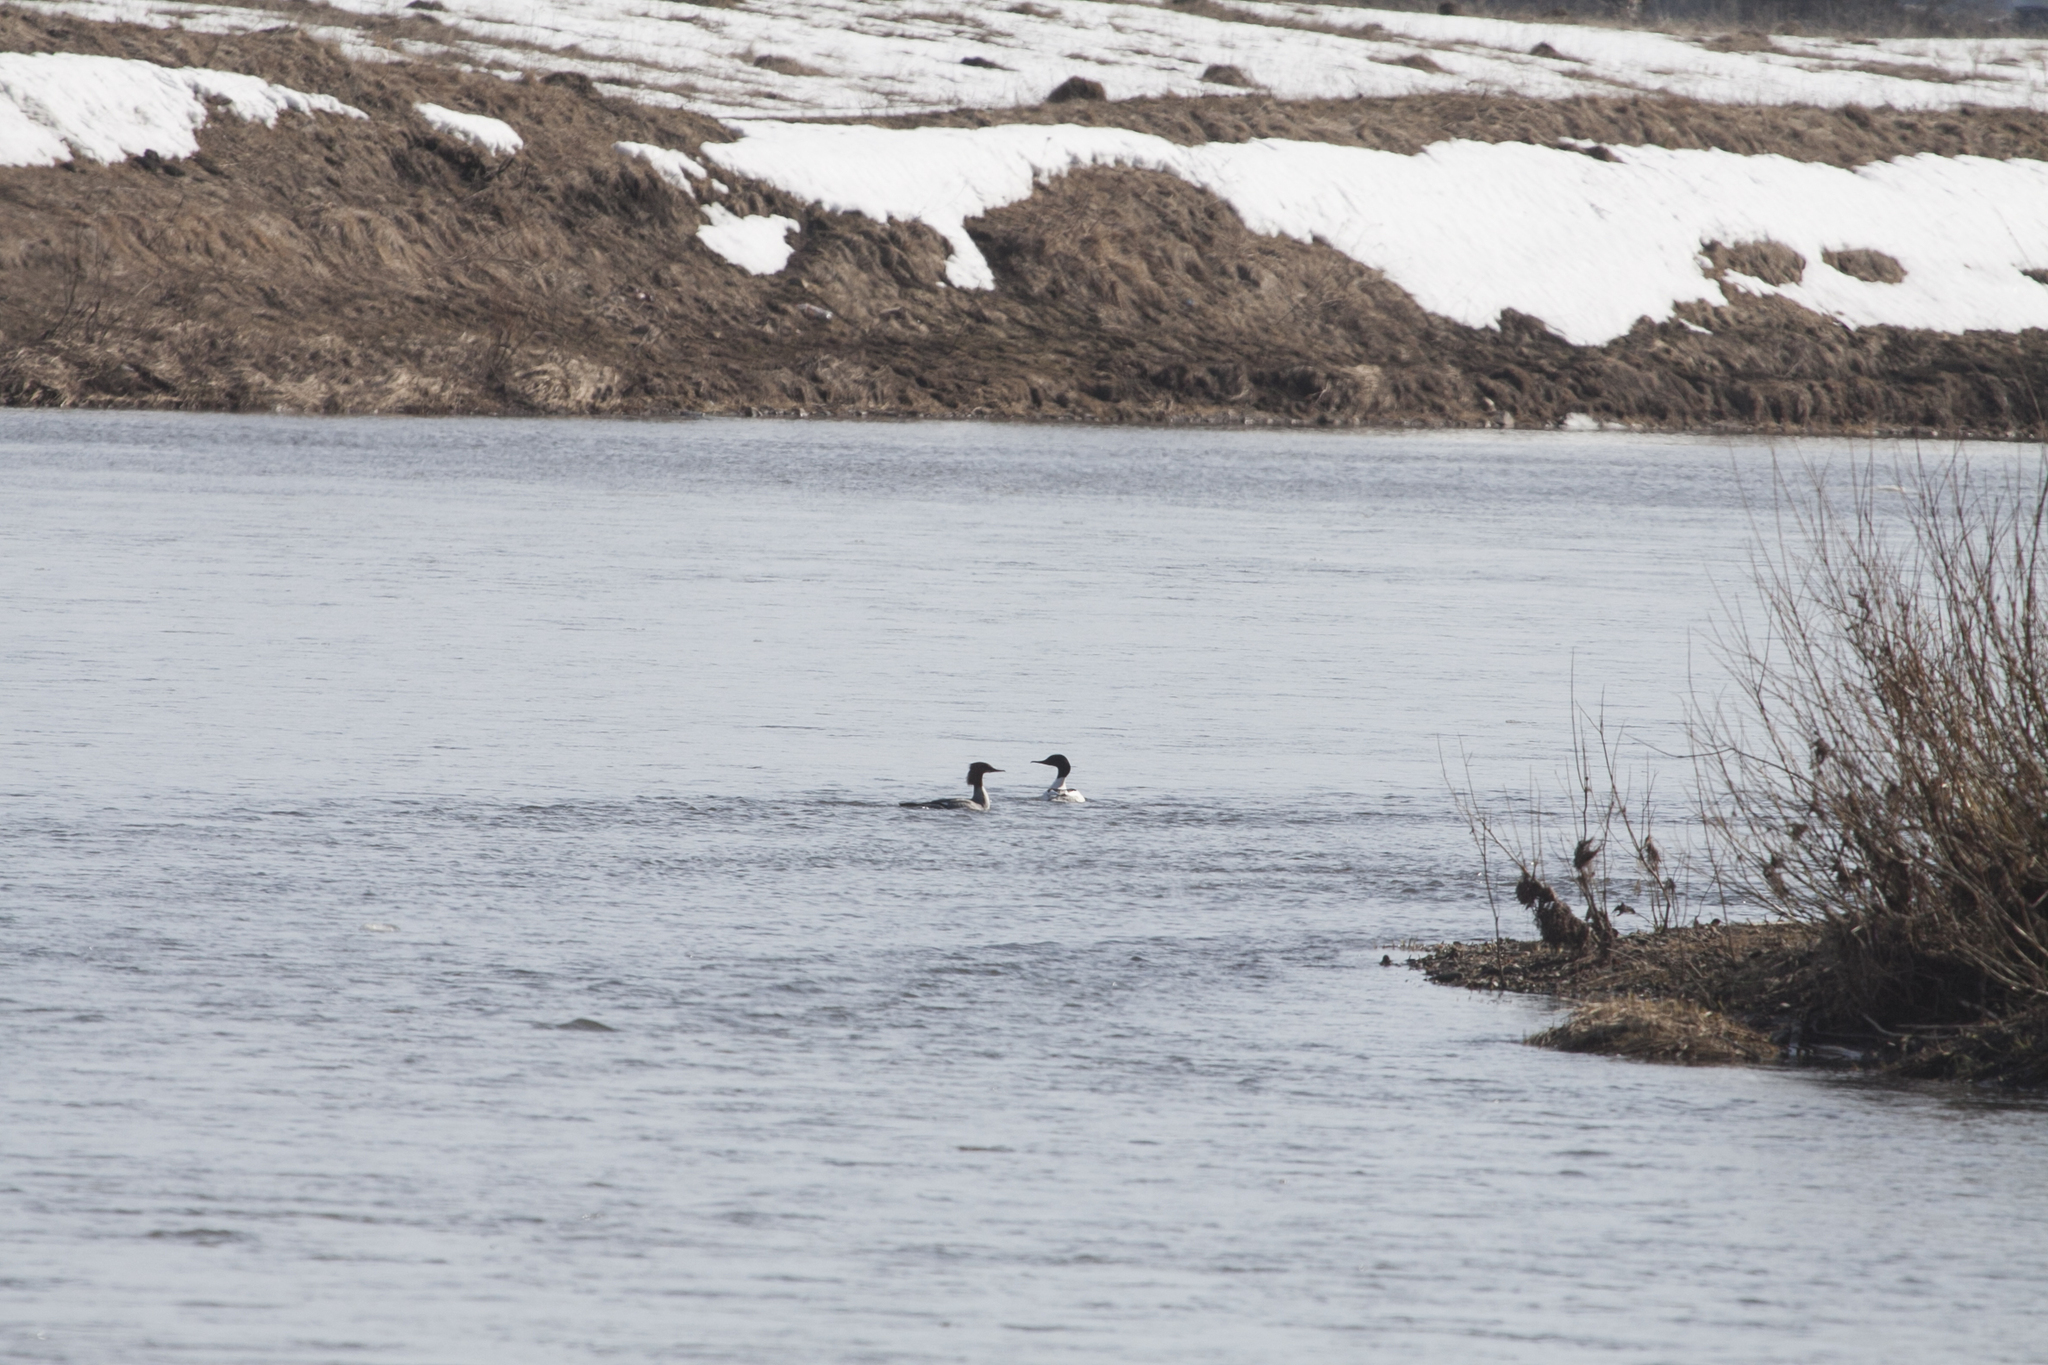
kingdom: Animalia
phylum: Chordata
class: Aves
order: Anseriformes
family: Anatidae
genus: Mergus
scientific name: Mergus merganser
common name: Common merganser
